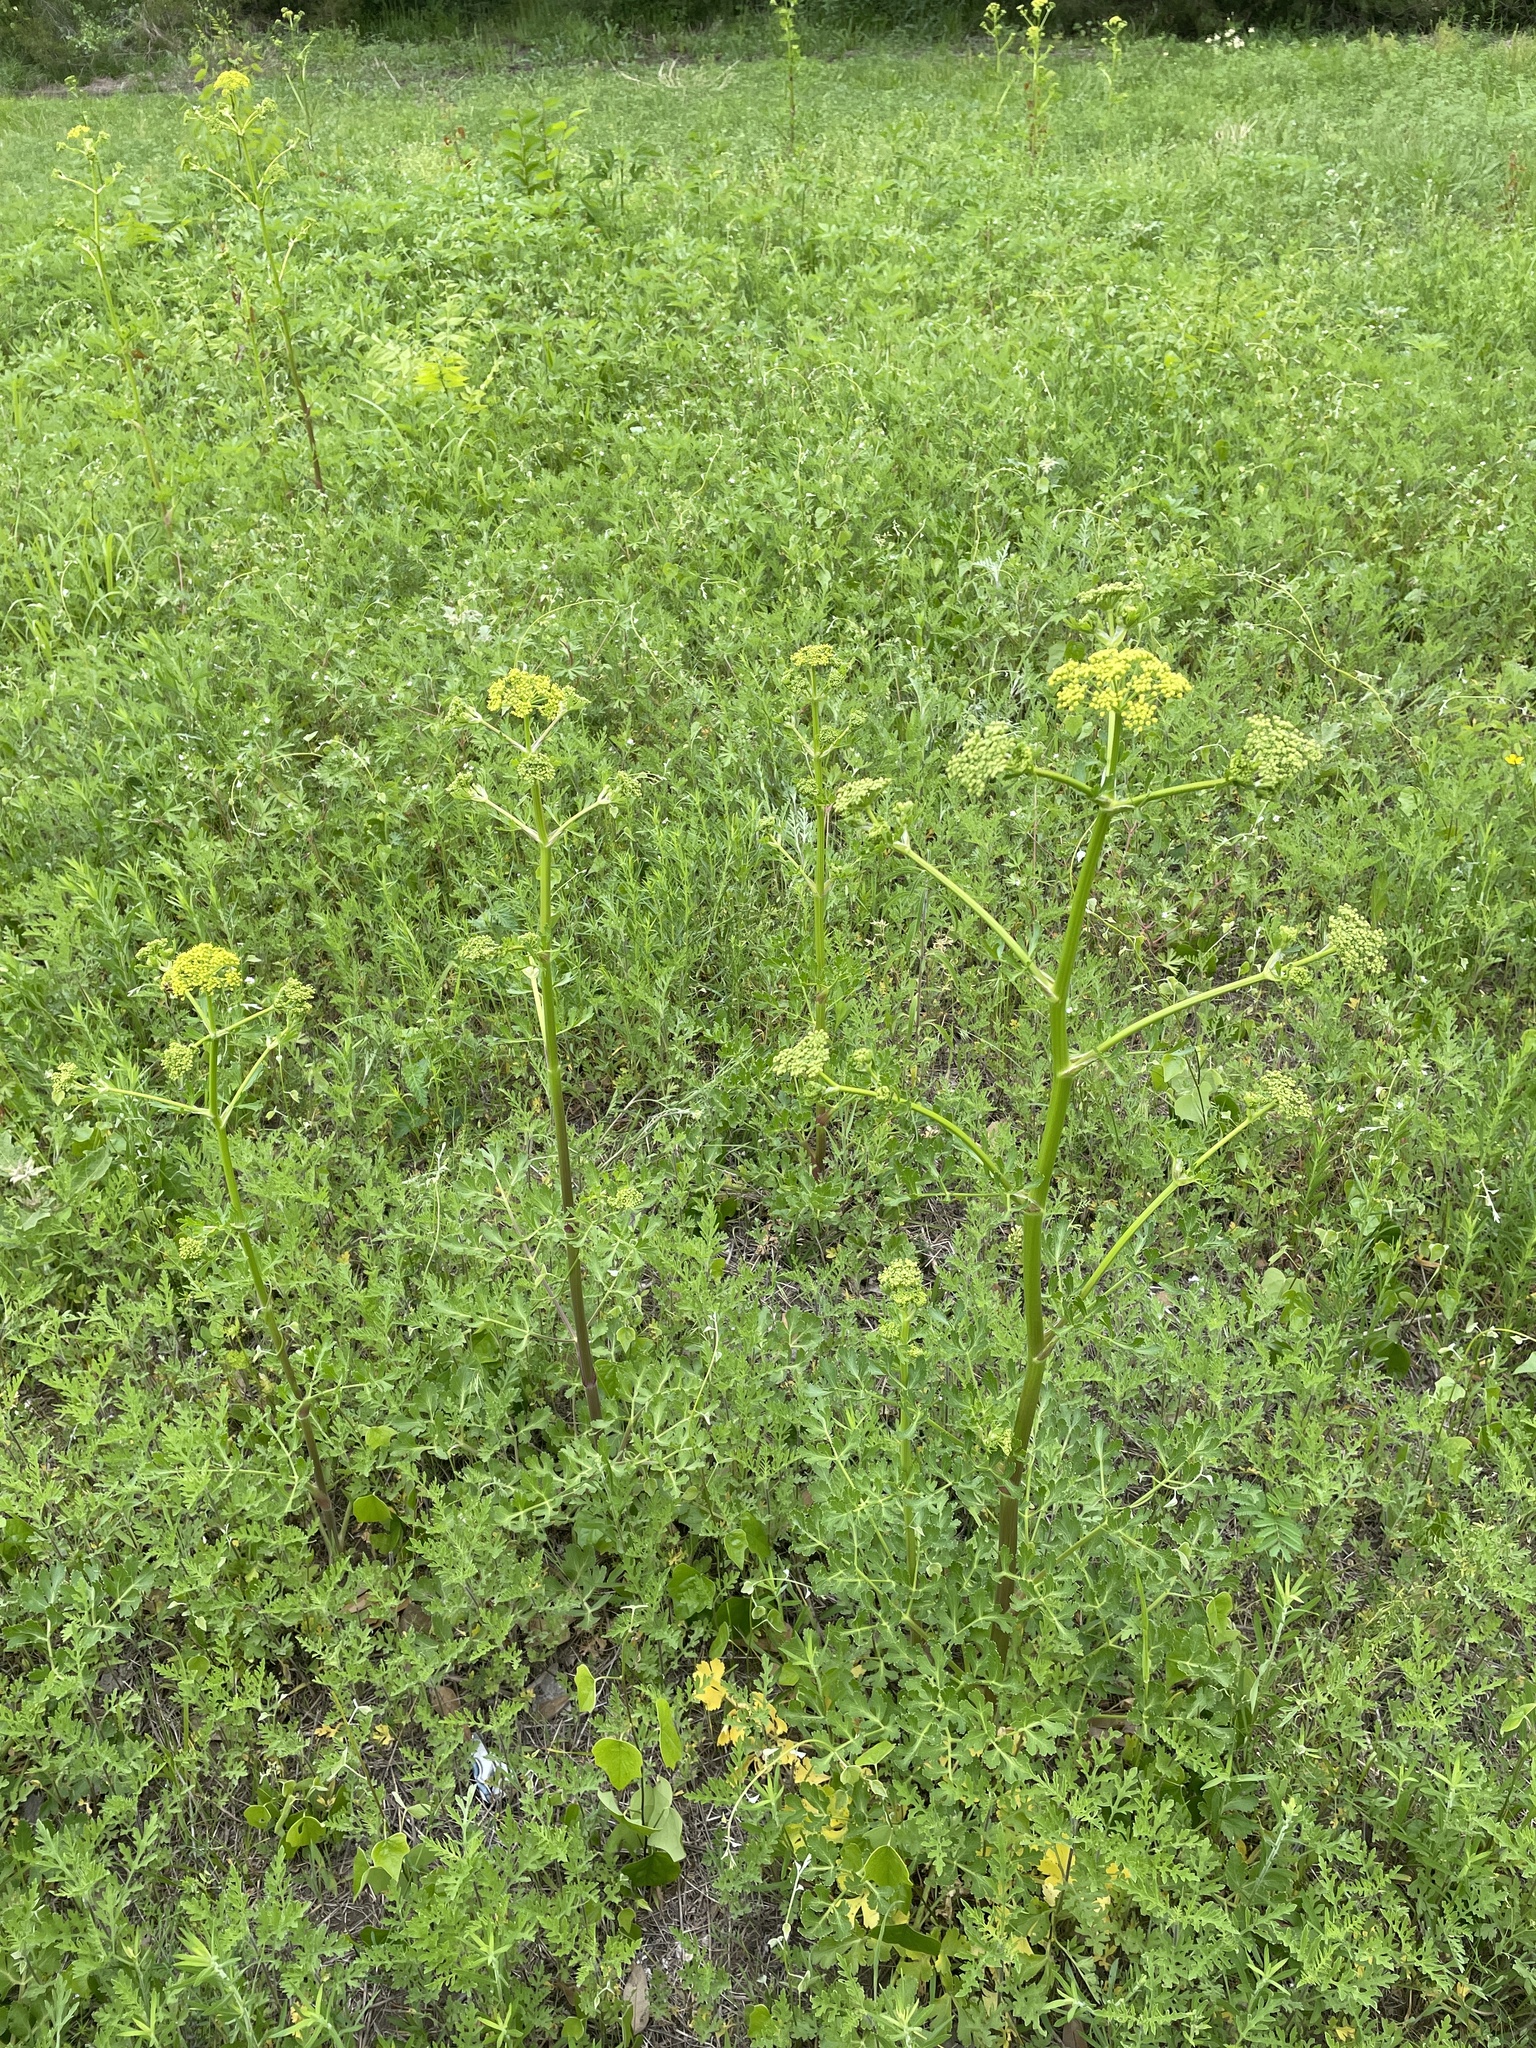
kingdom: Plantae
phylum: Tracheophyta
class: Magnoliopsida
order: Apiales
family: Apiaceae
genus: Polytaenia
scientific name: Polytaenia texana
